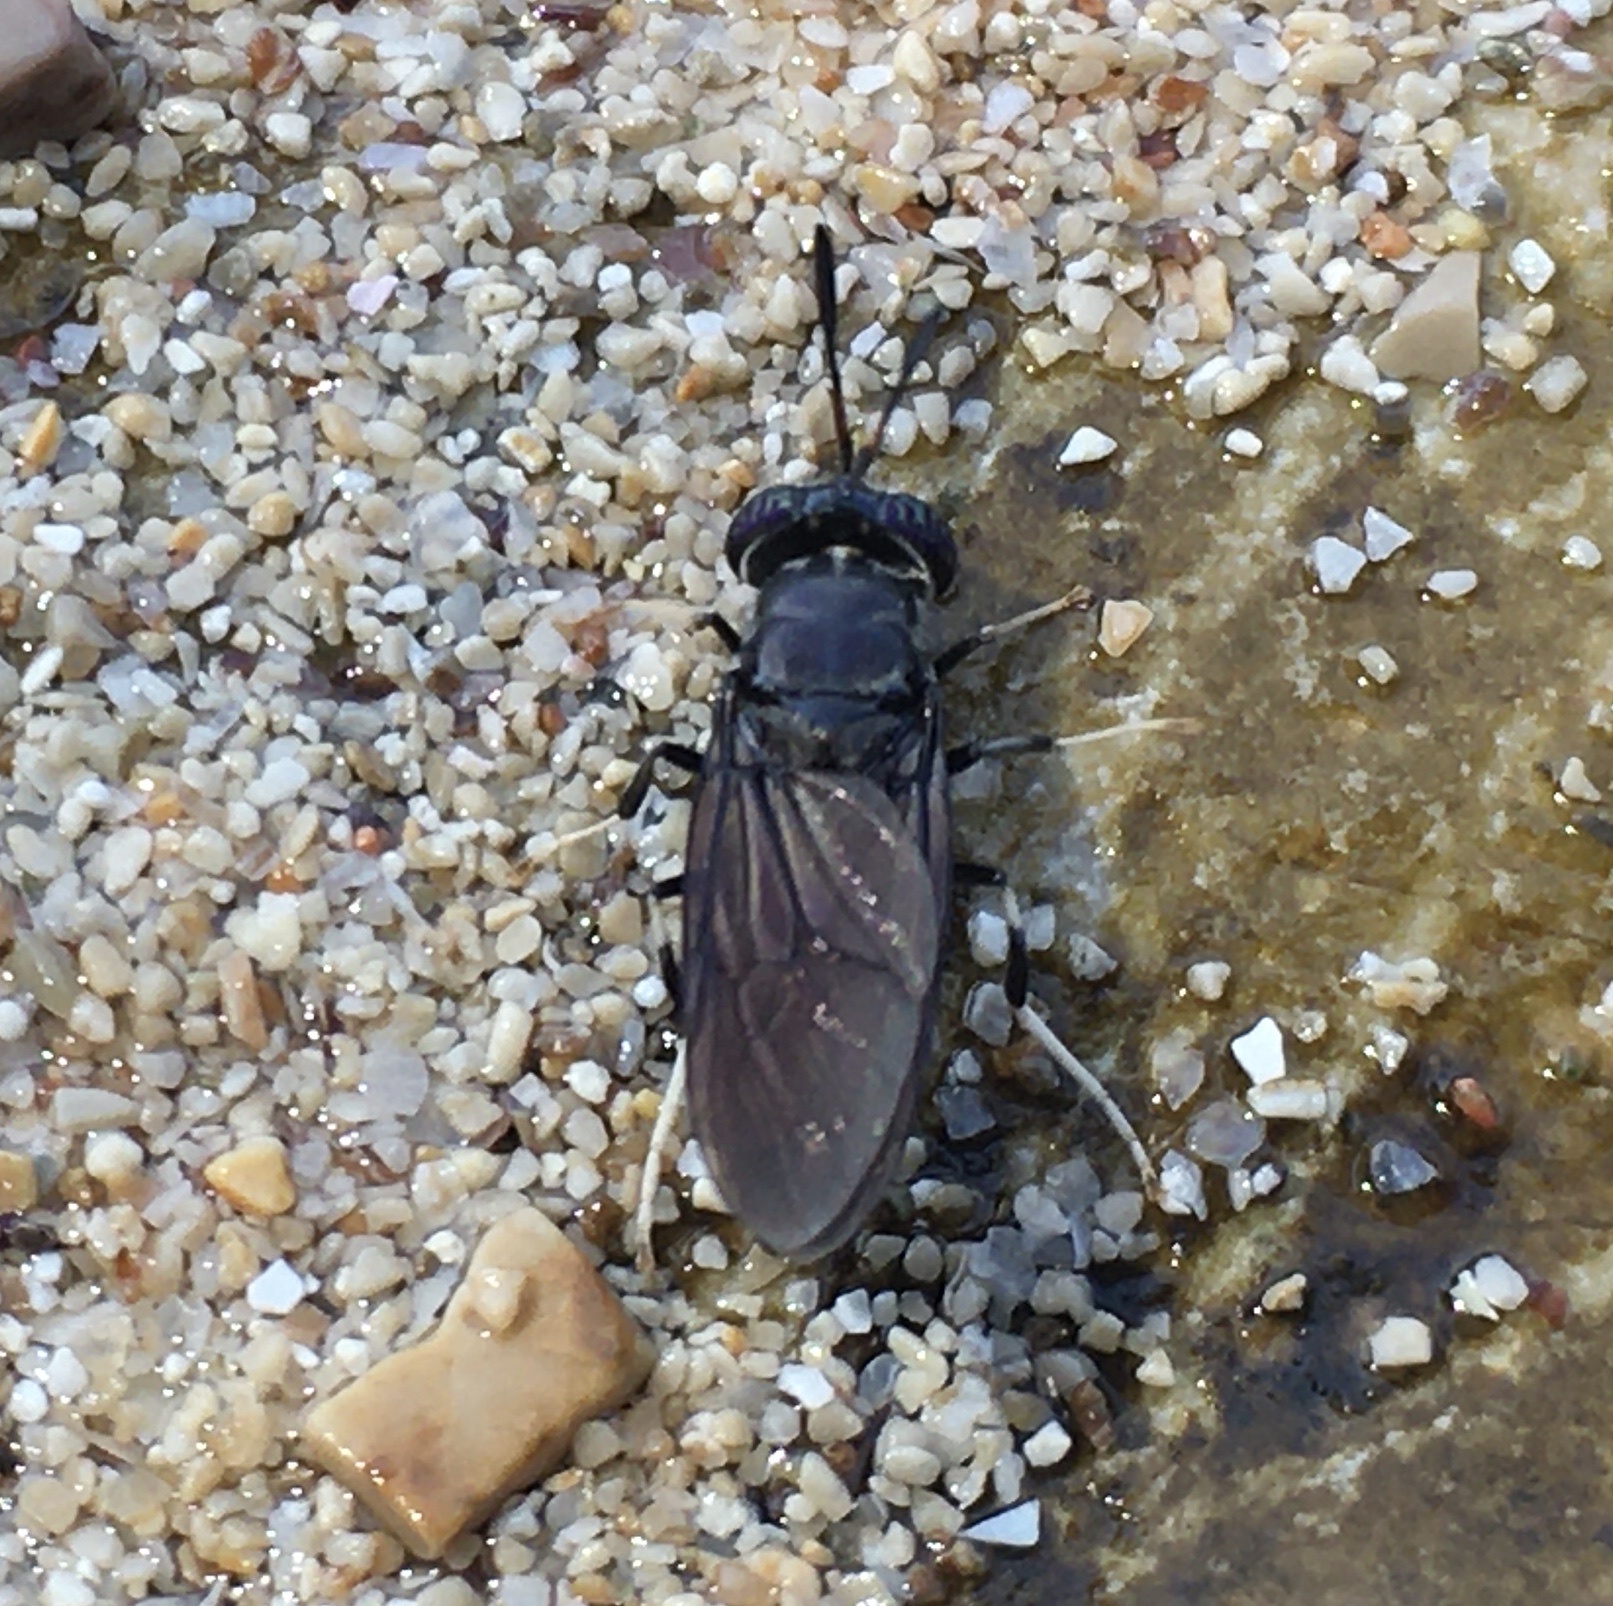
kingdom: Animalia
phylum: Arthropoda
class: Insecta
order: Diptera
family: Stratiomyidae
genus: Hermetia
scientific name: Hermetia illucens
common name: Black soldier fly
